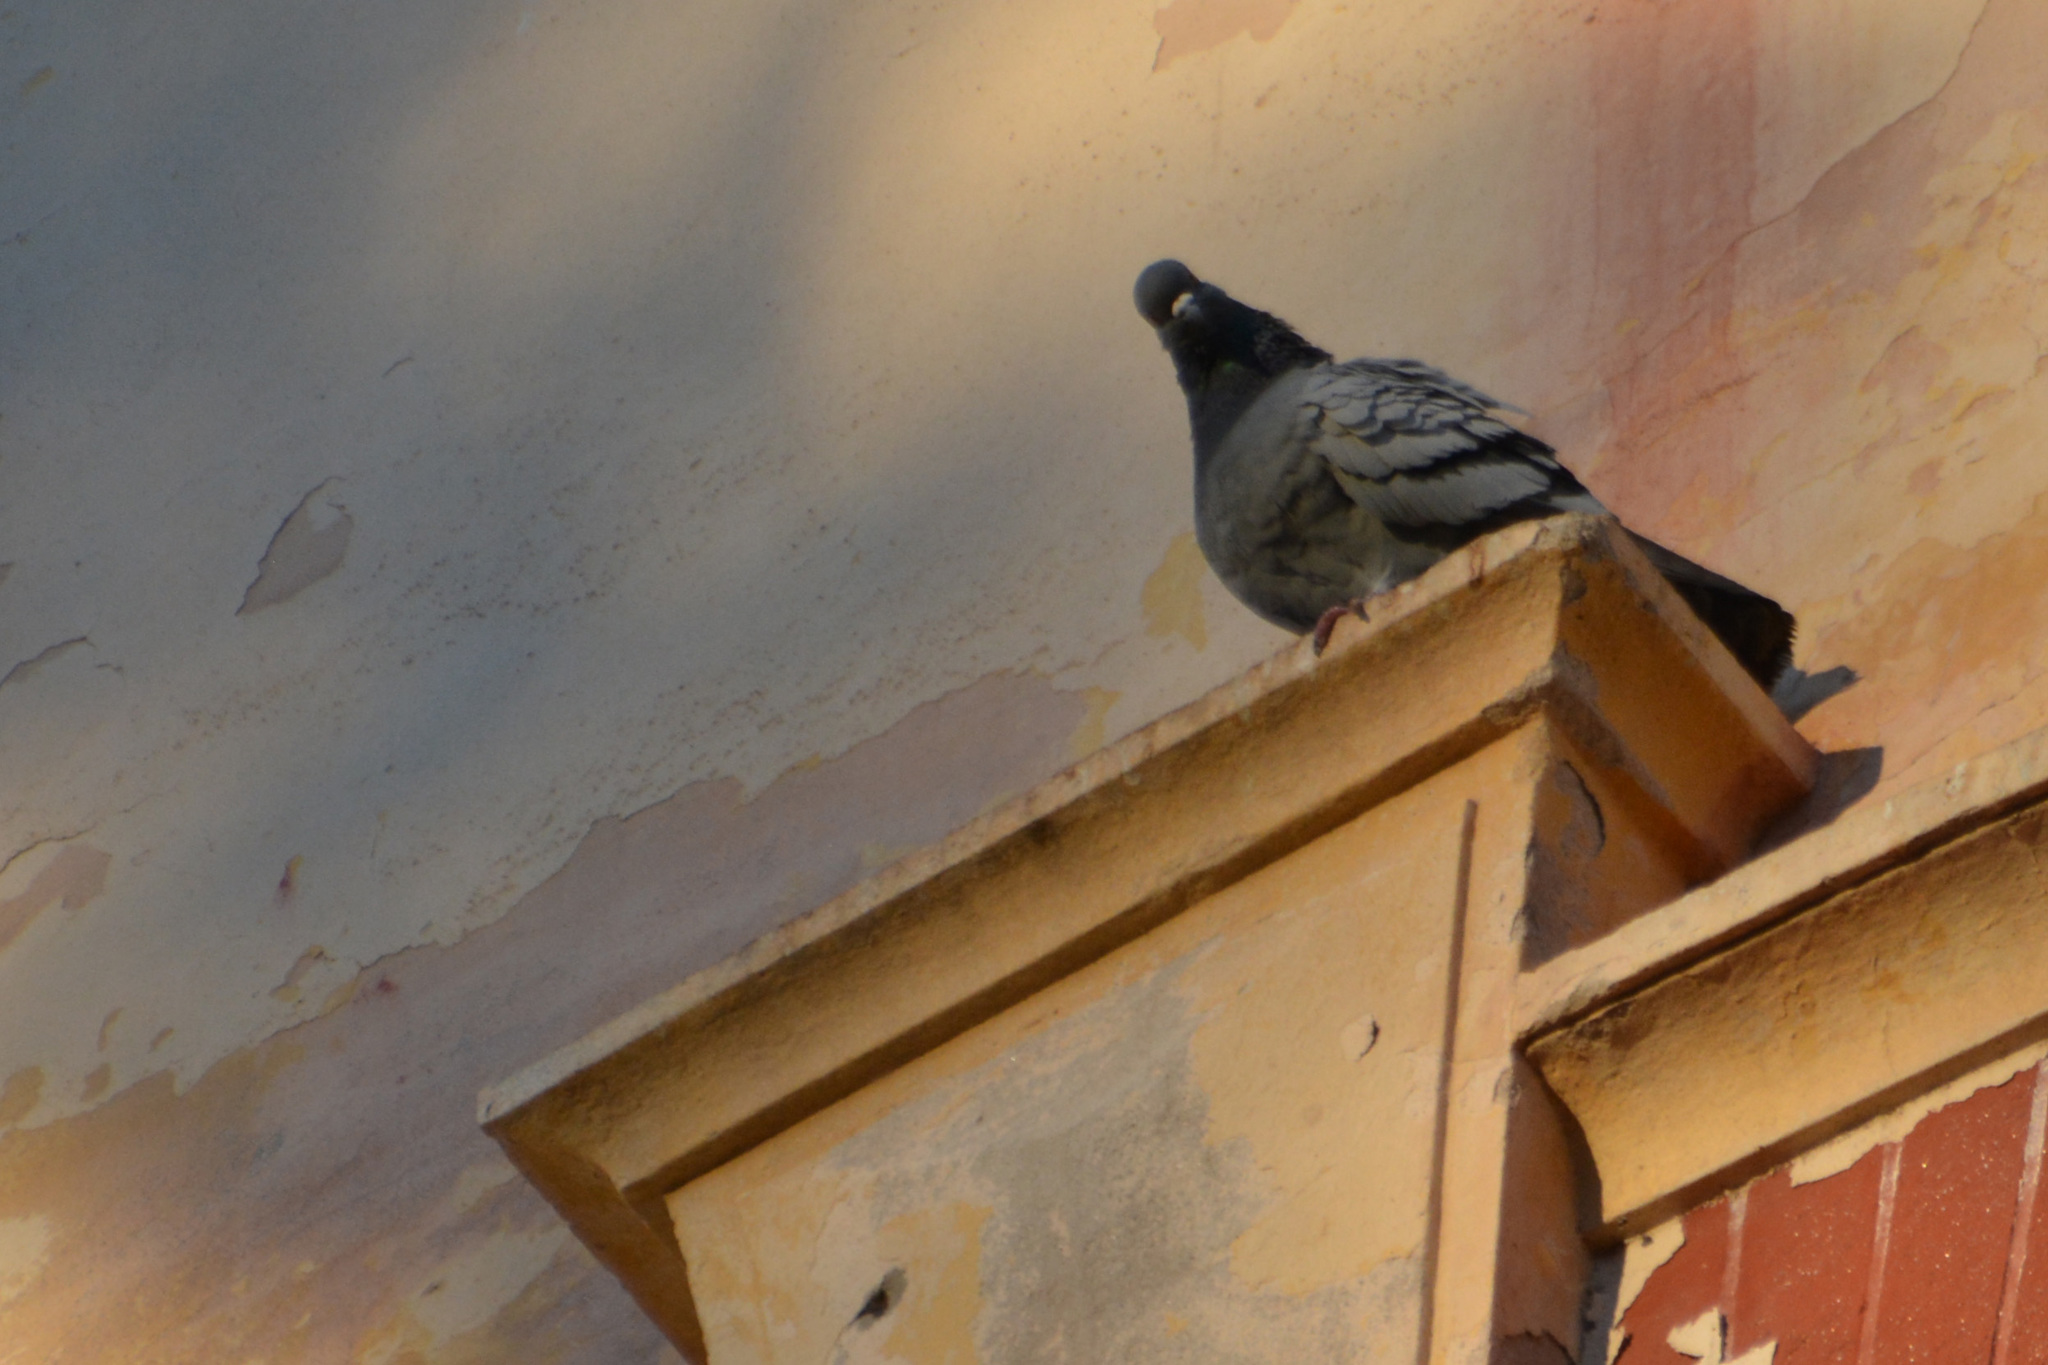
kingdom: Animalia
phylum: Chordata
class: Aves
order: Columbiformes
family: Columbidae
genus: Columba
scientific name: Columba livia
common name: Rock pigeon
